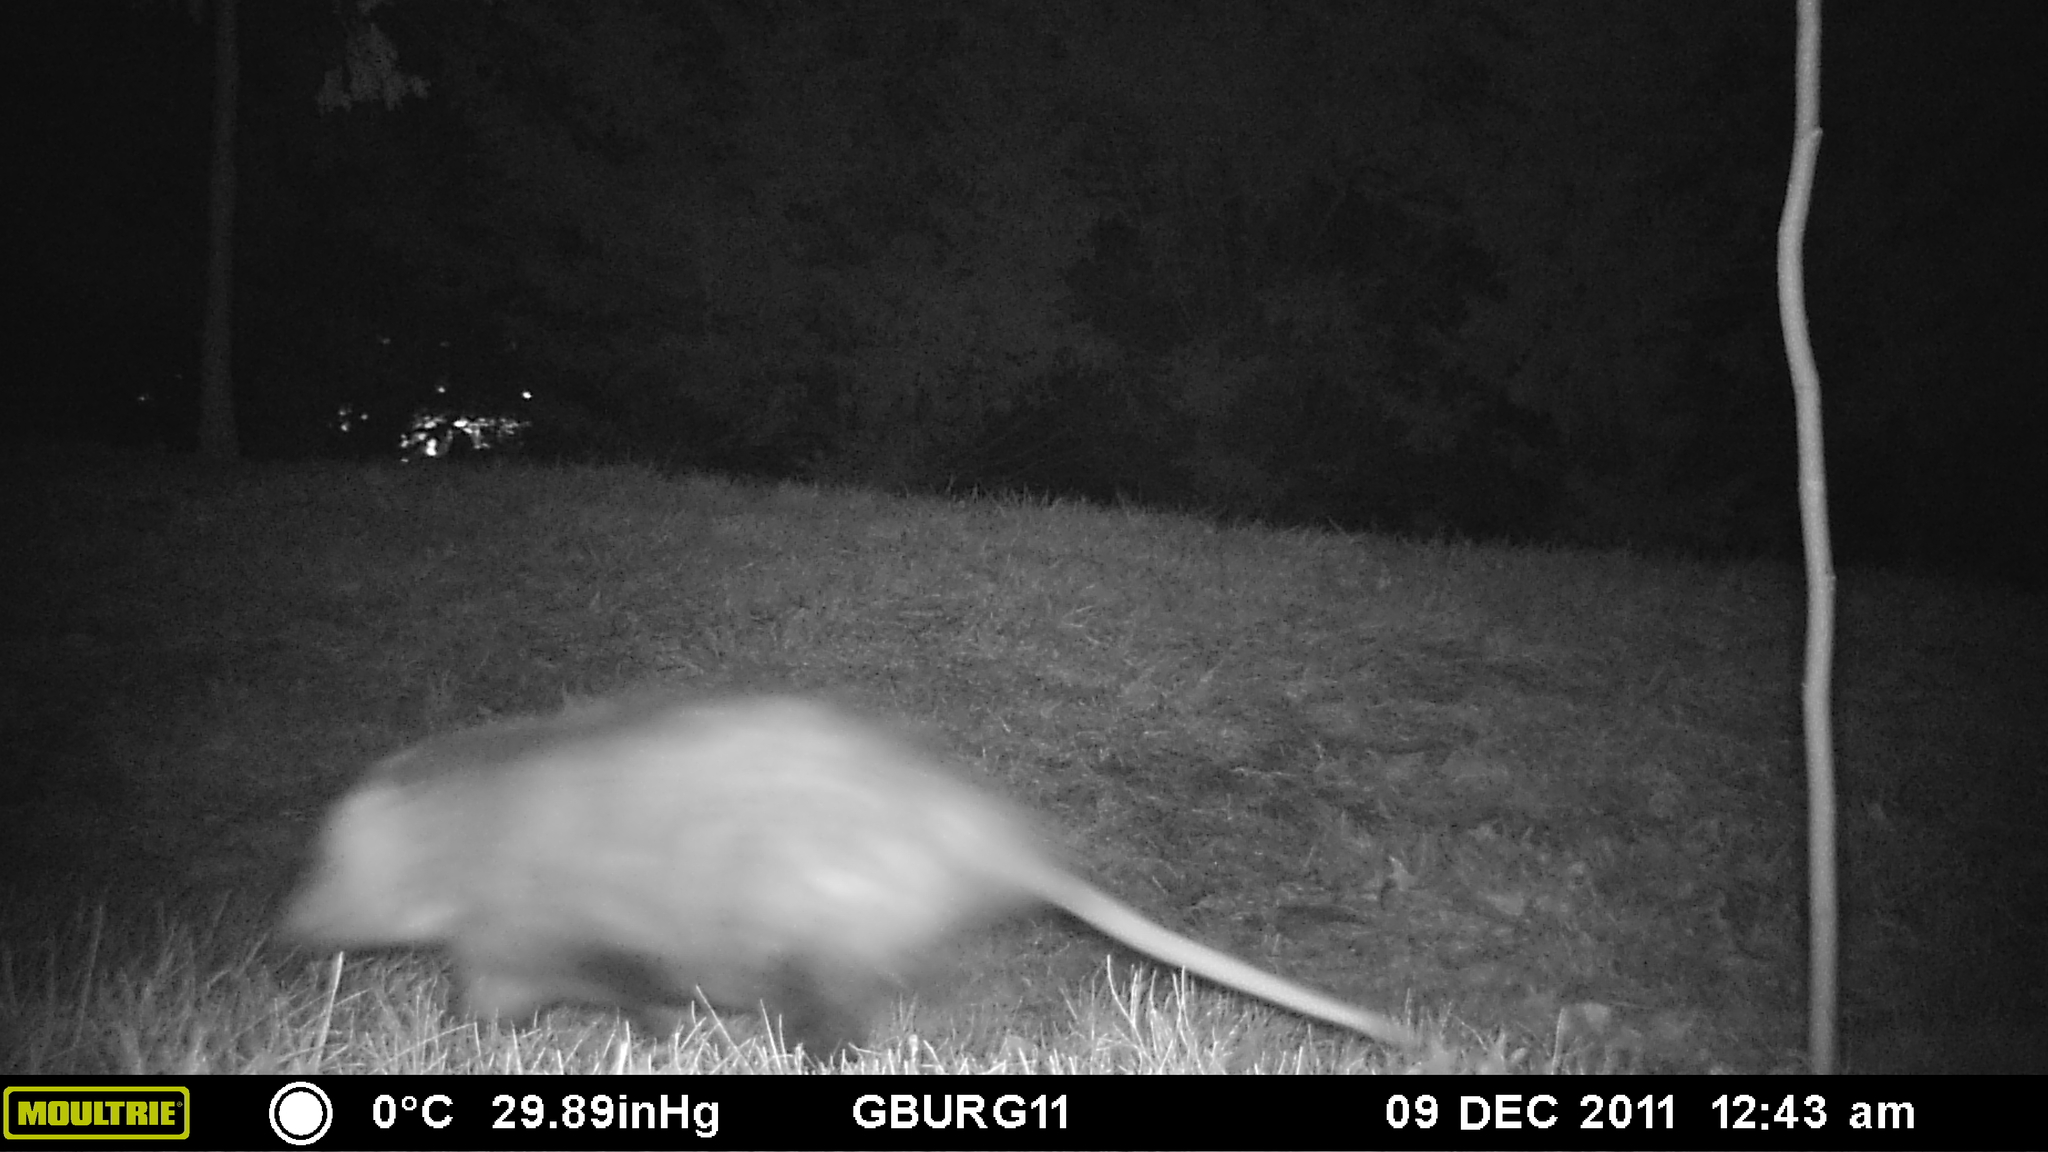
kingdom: Animalia
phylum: Chordata
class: Mammalia
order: Didelphimorphia
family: Didelphidae
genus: Didelphis
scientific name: Didelphis virginiana
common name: Virginia opossum
